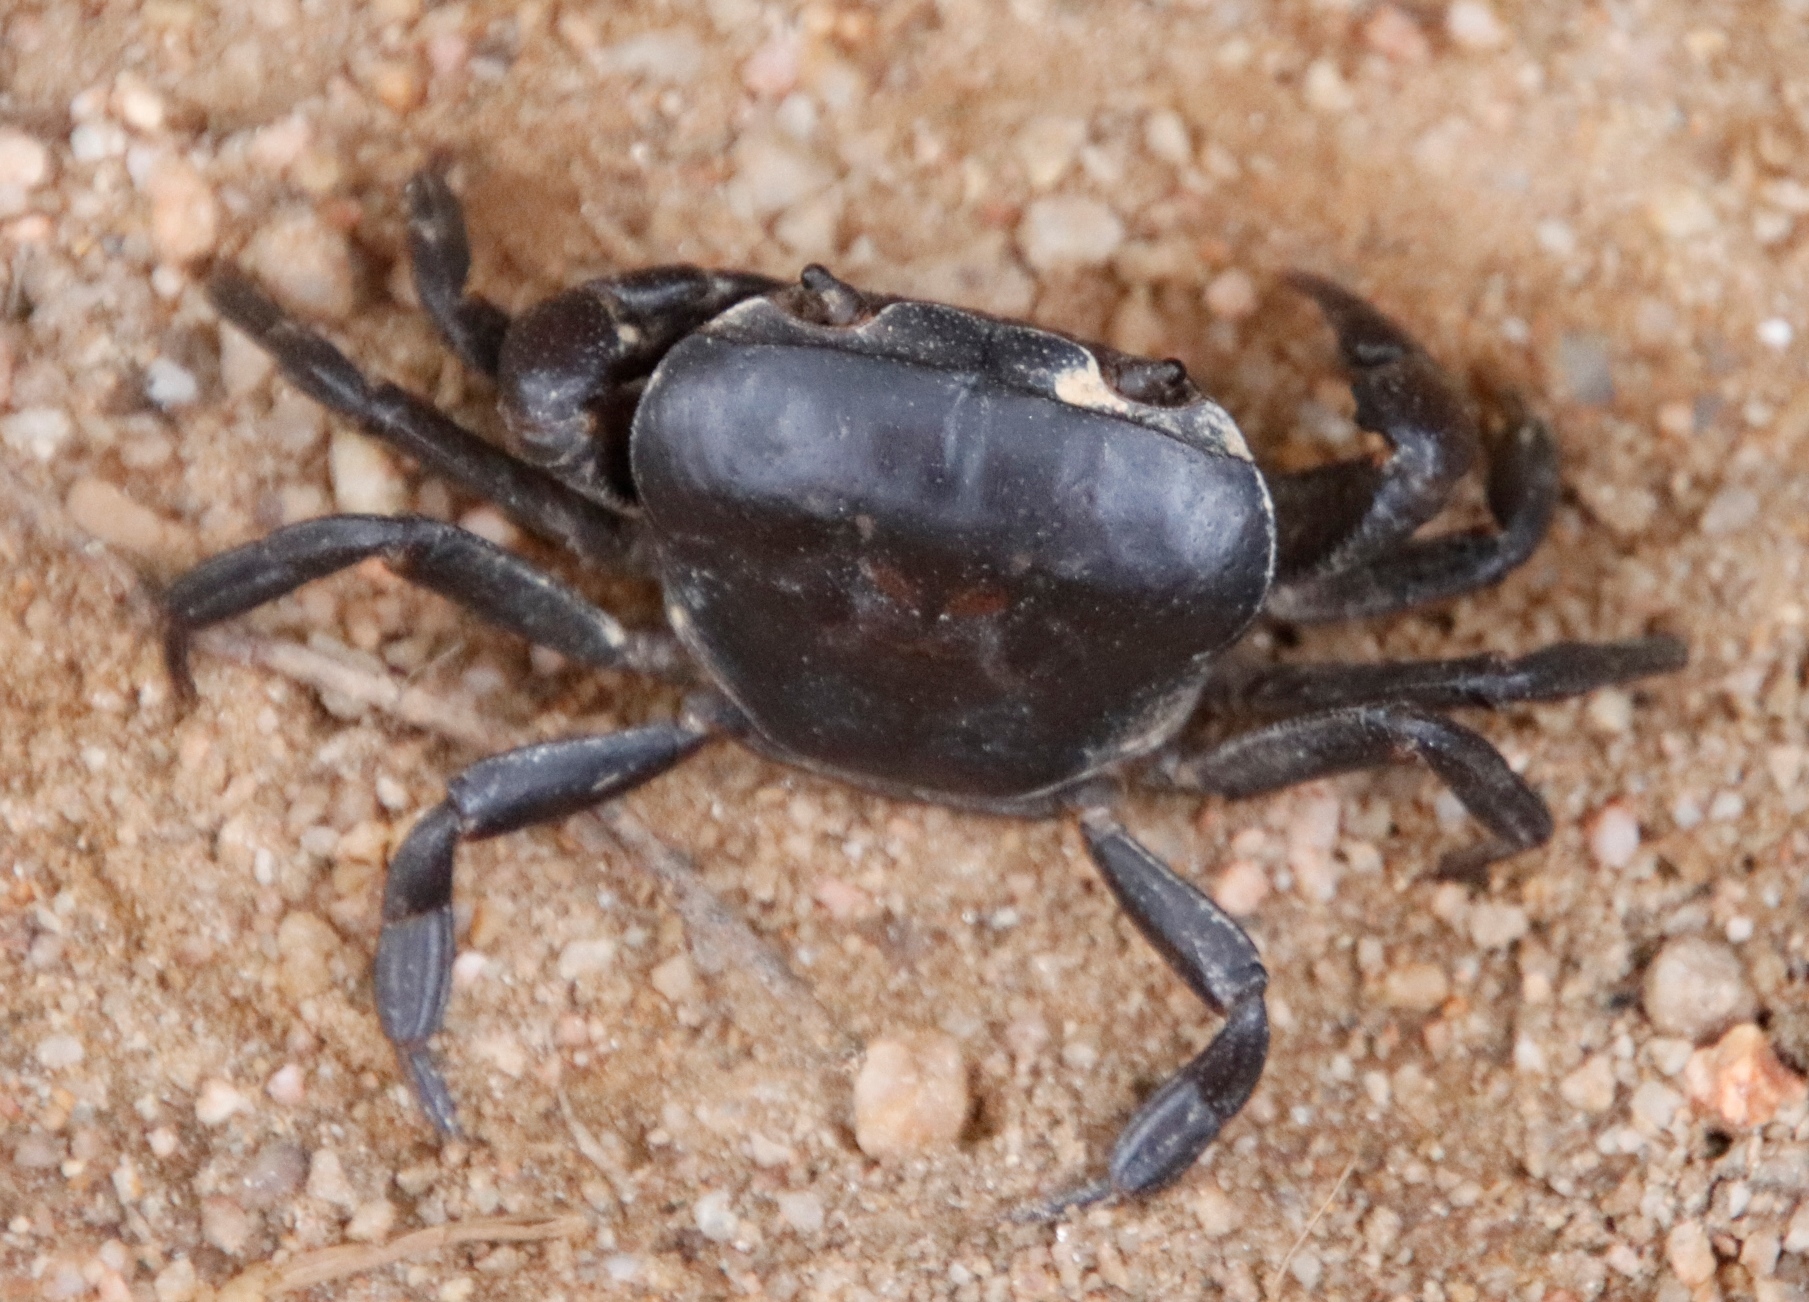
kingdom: Animalia
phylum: Arthropoda
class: Malacostraca
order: Decapoda
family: Potamonautidae
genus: Potamonautes
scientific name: Potamonautes parvicorpus
